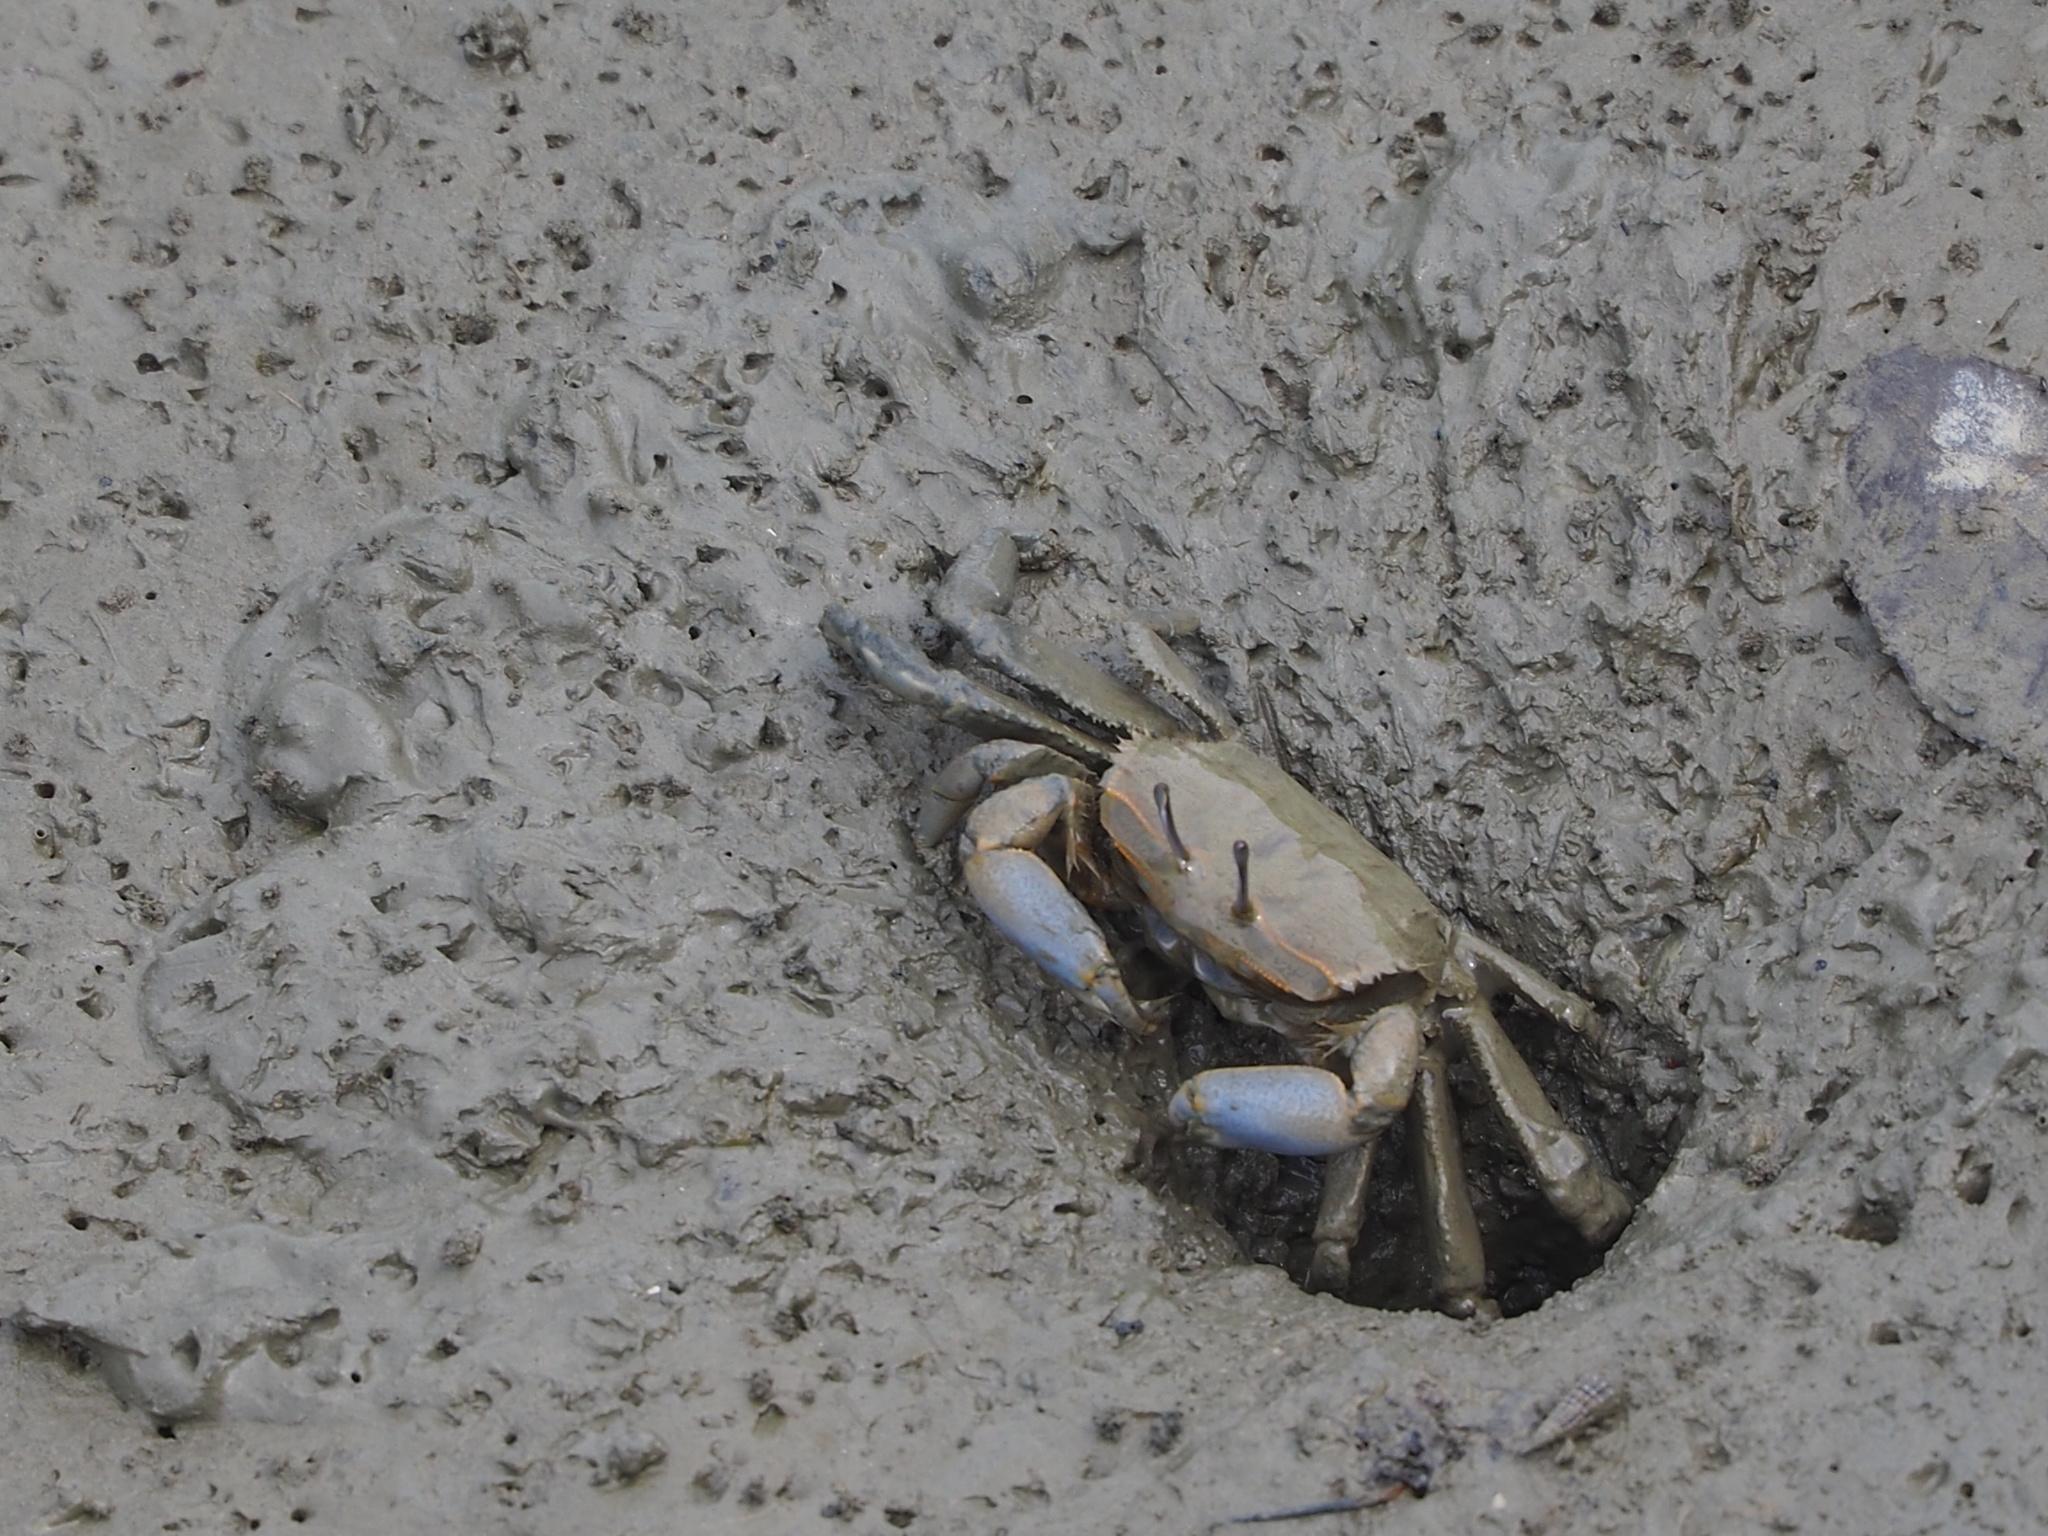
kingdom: Animalia
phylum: Arthropoda
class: Malacostraca
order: Decapoda
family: Macrophthalmidae
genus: Macrophthalmus
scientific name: Macrophthalmus tomentosus
